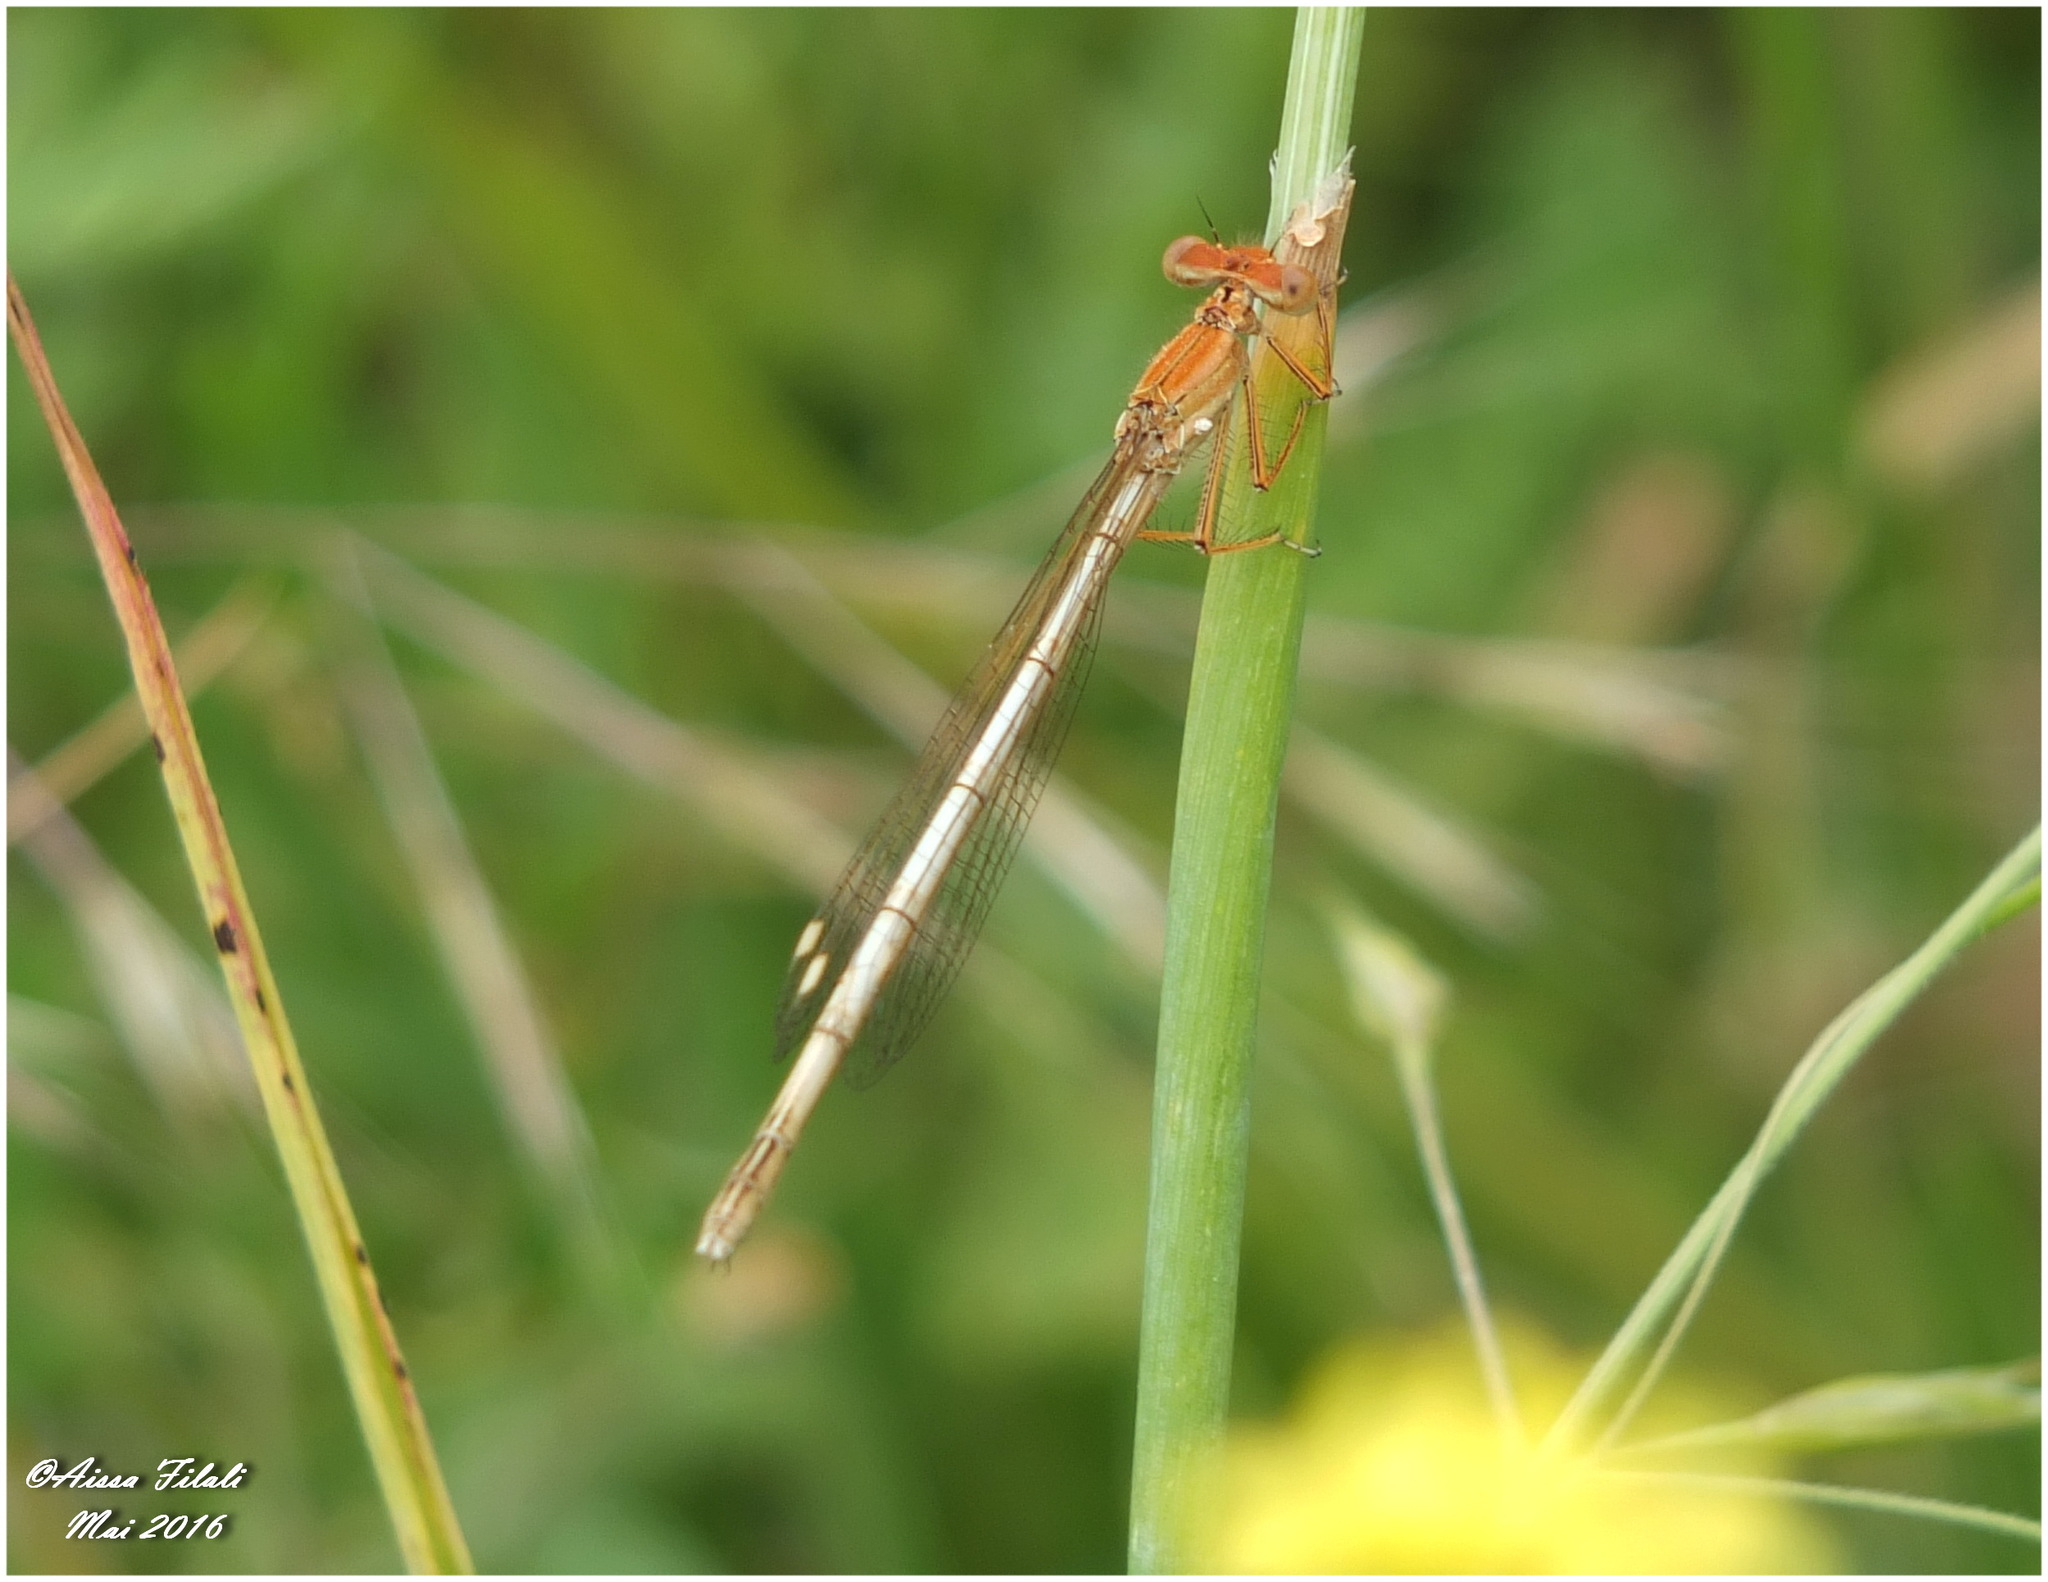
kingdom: Animalia
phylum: Arthropoda
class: Insecta
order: Odonata
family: Platycnemididae
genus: Platycnemis
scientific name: Platycnemis subdilatata
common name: Barbary featherleg
